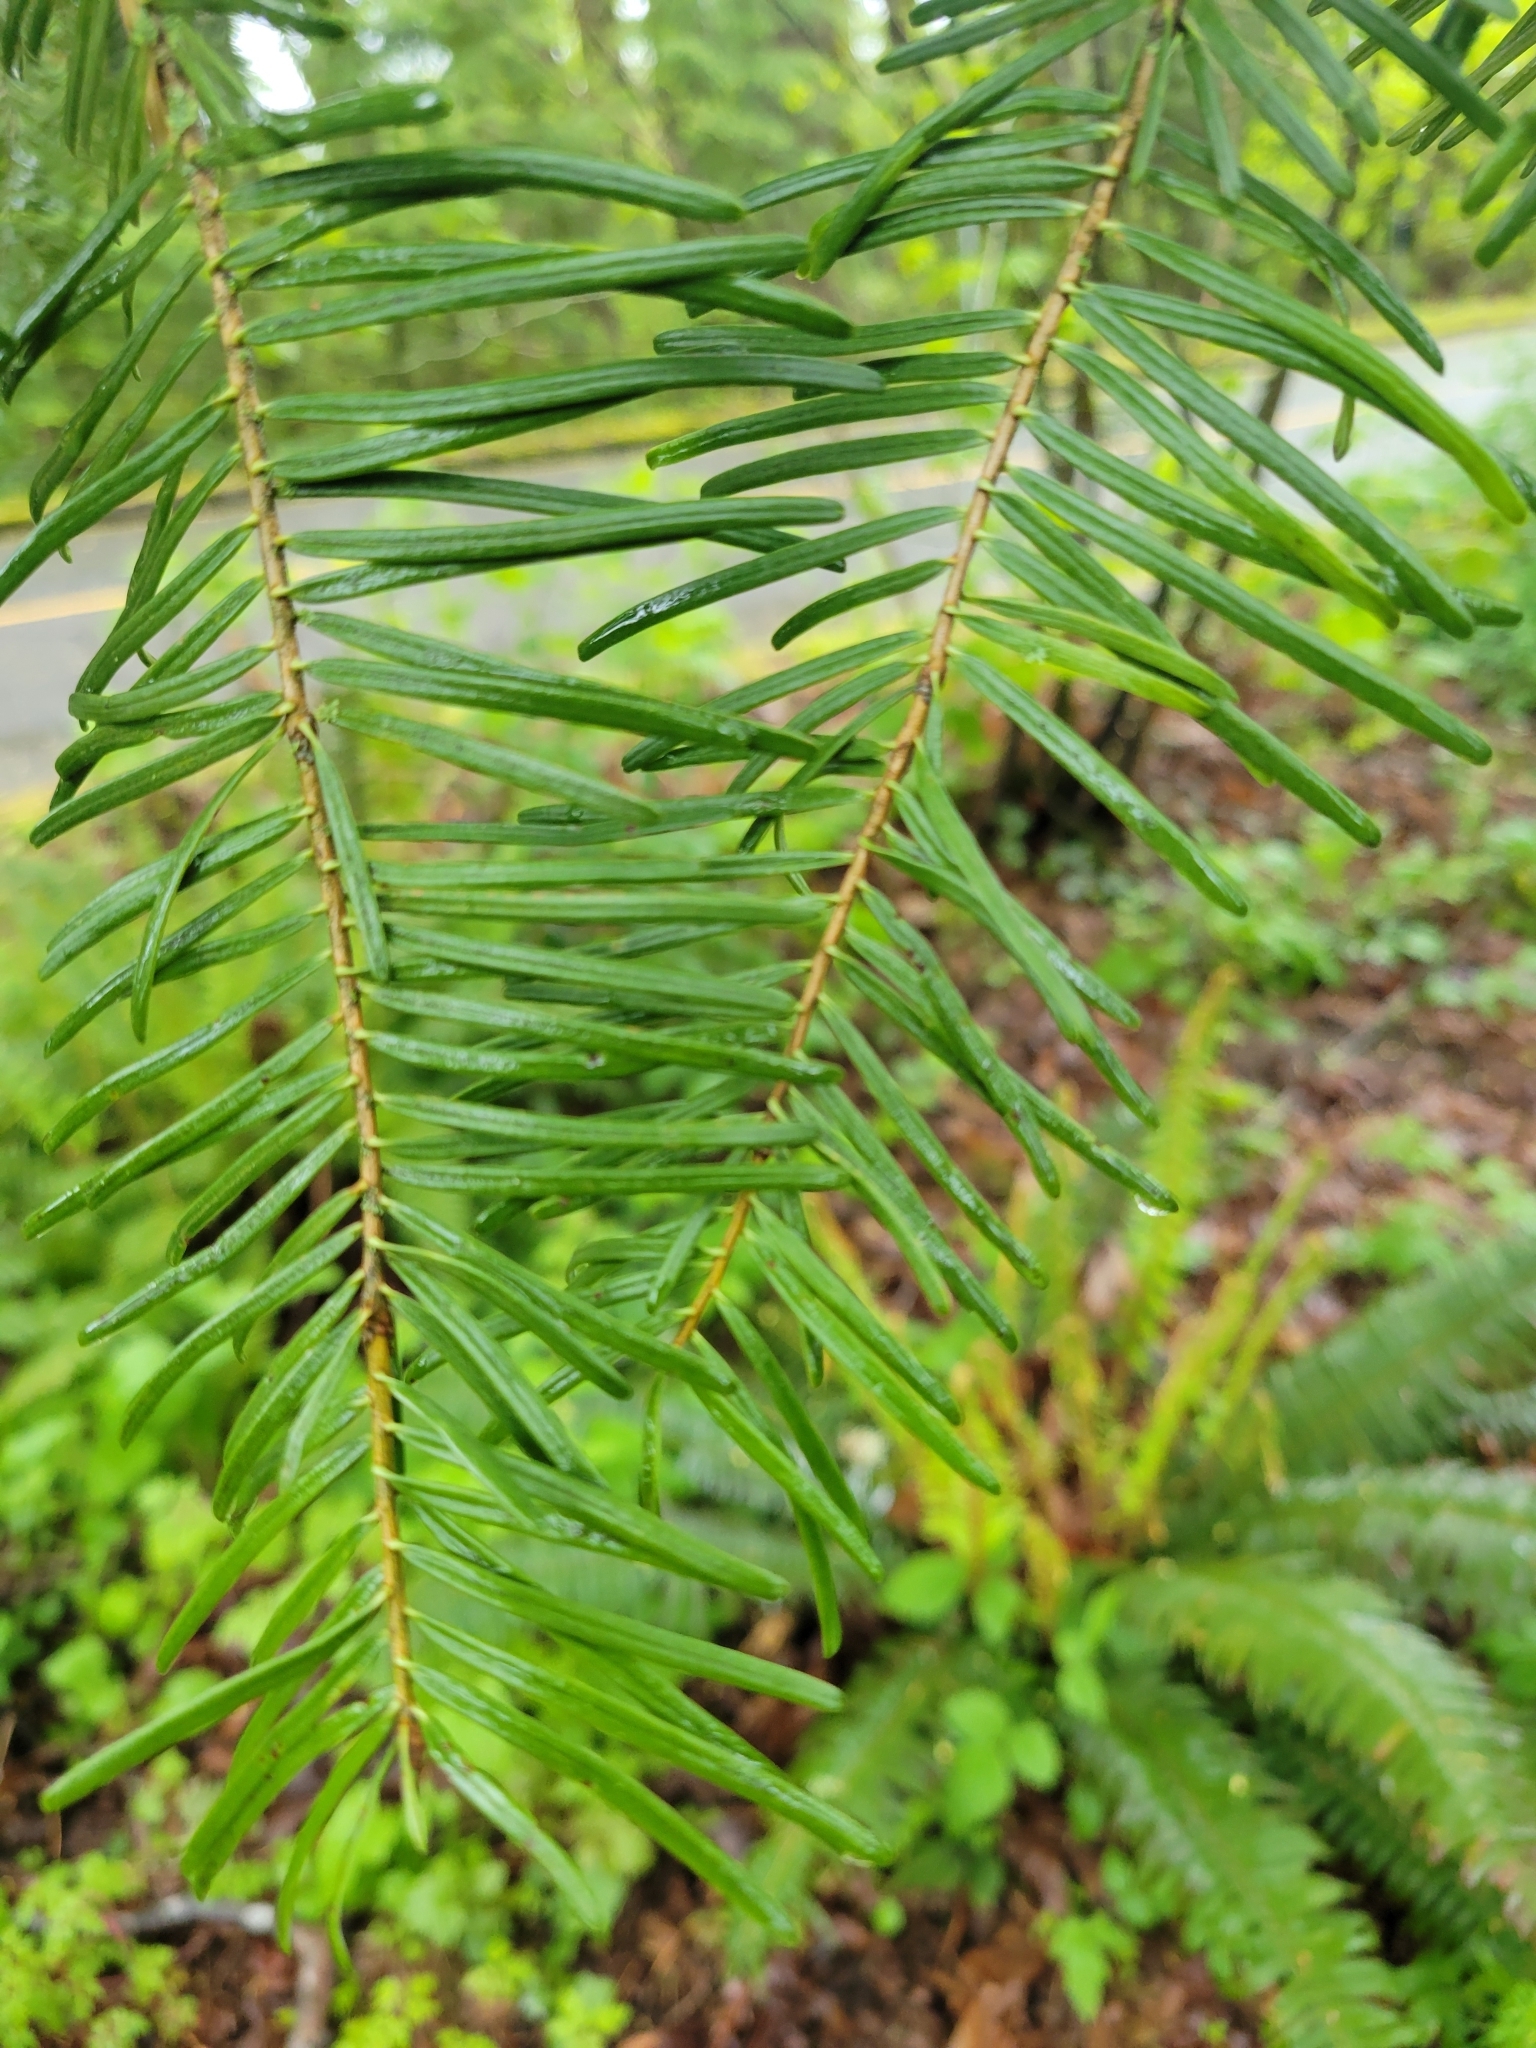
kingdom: Plantae
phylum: Tracheophyta
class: Pinopsida
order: Pinales
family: Pinaceae
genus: Abies
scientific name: Abies grandis
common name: Giant fir
